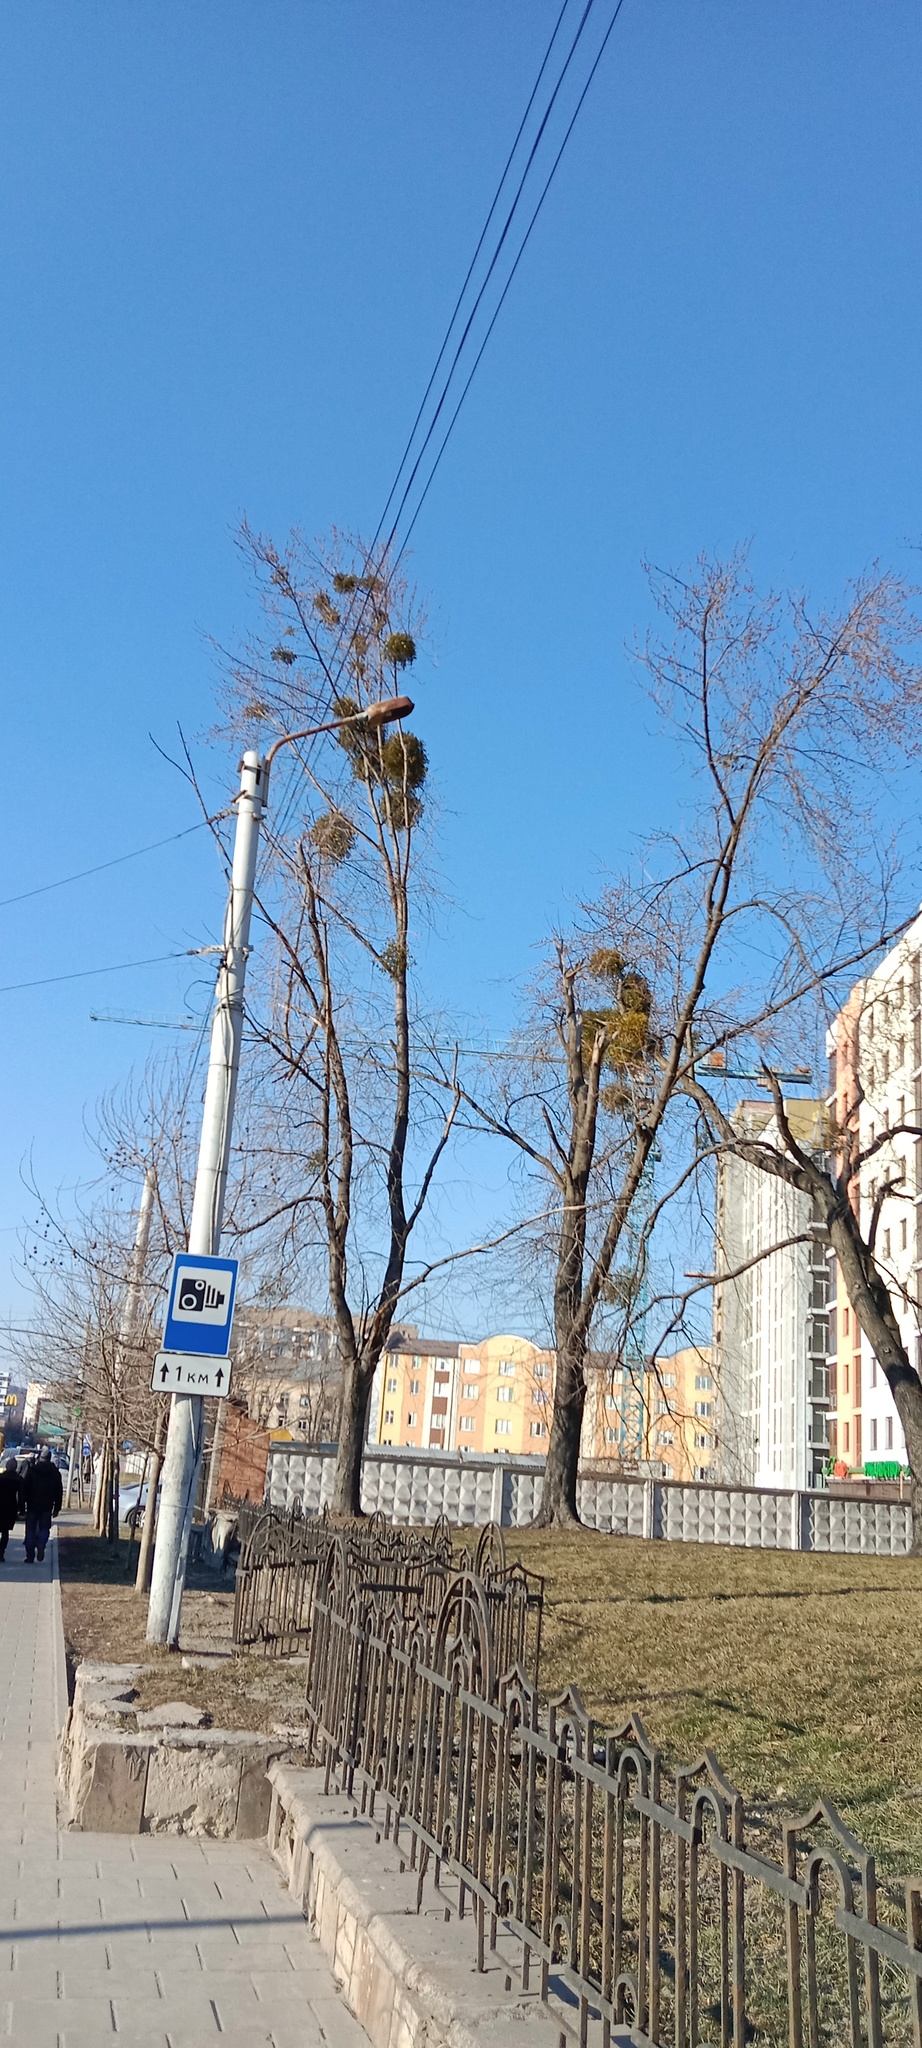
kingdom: Plantae
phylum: Tracheophyta
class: Magnoliopsida
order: Santalales
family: Viscaceae
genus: Viscum
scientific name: Viscum album
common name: Mistletoe
